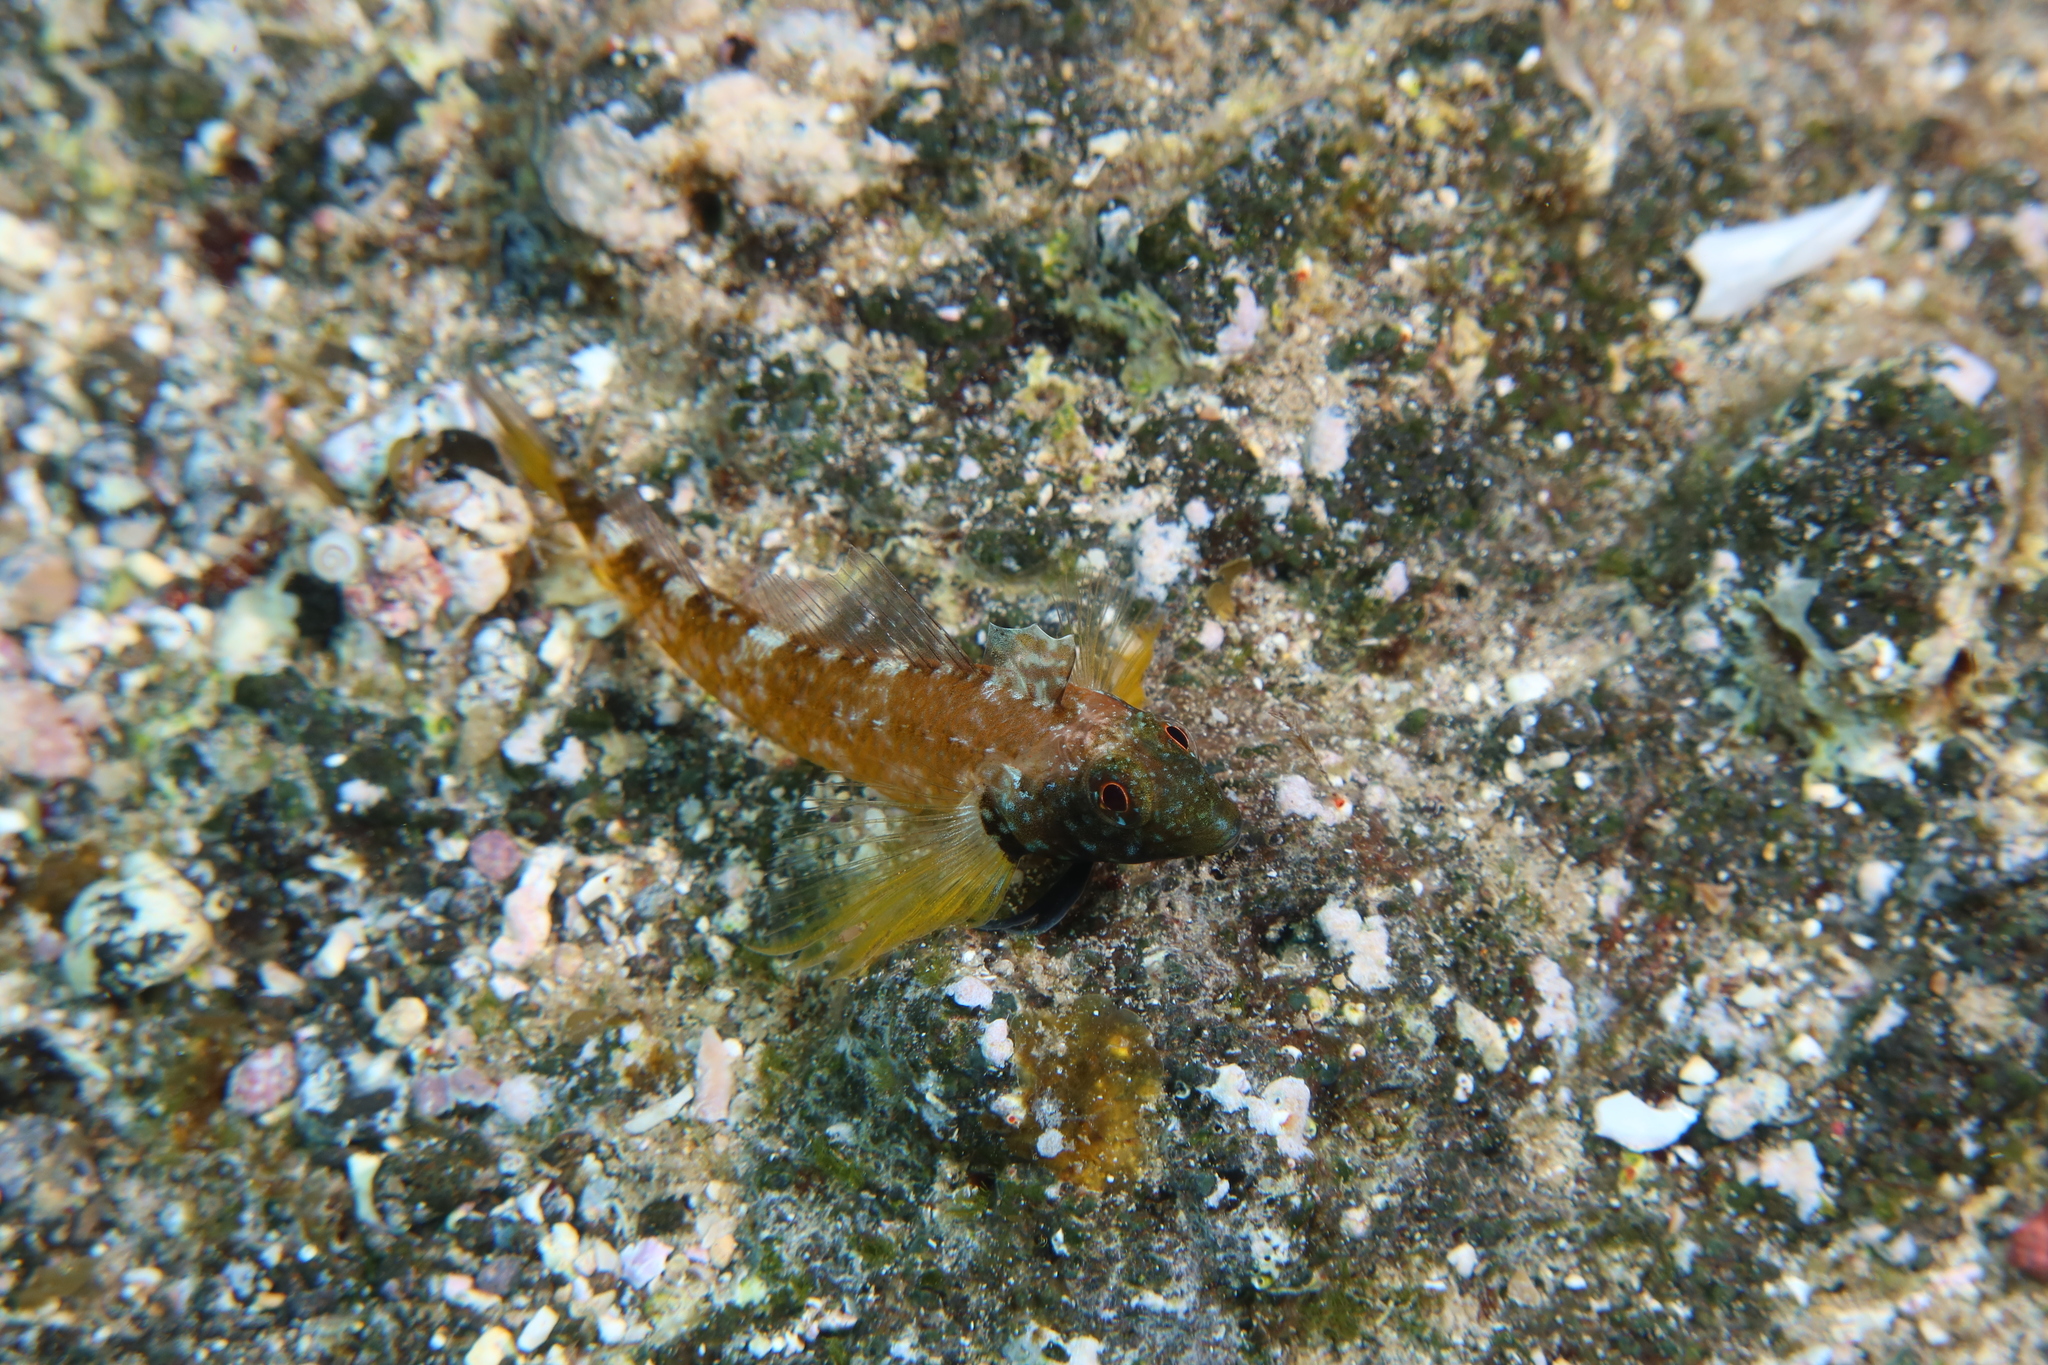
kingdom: Animalia
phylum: Chordata
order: Perciformes
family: Tripterygiidae
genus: Tripterygion
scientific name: Tripterygion delaisi
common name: Black-face blenny
